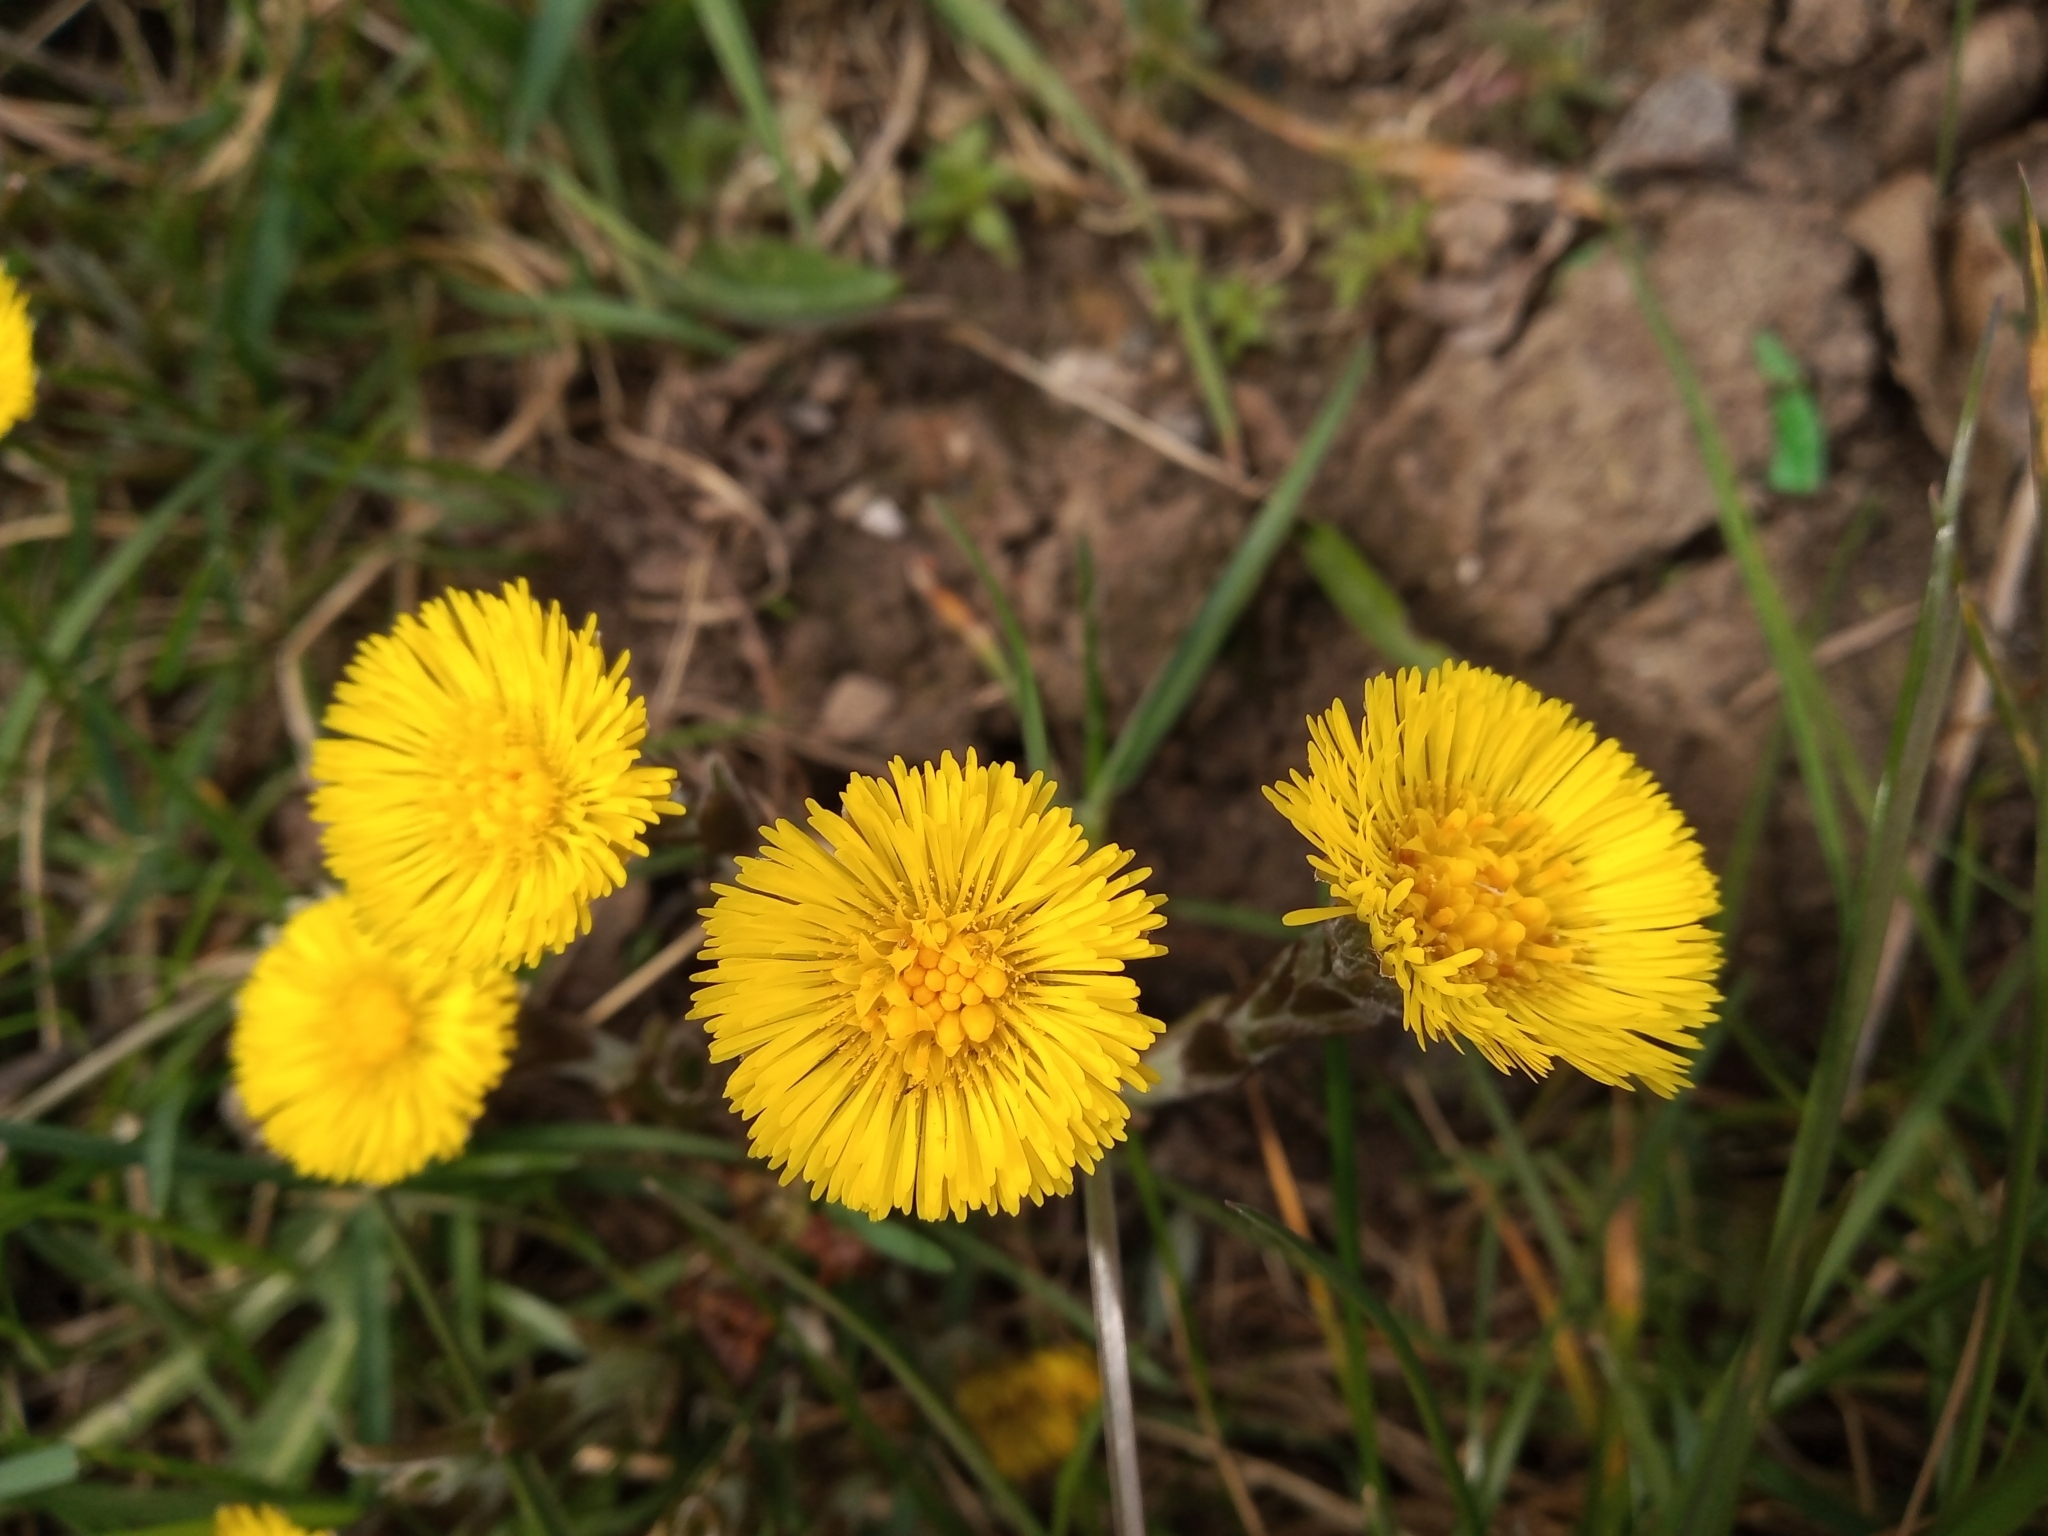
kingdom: Plantae
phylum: Tracheophyta
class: Magnoliopsida
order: Asterales
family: Asteraceae
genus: Tussilago
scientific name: Tussilago farfara
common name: Coltsfoot
